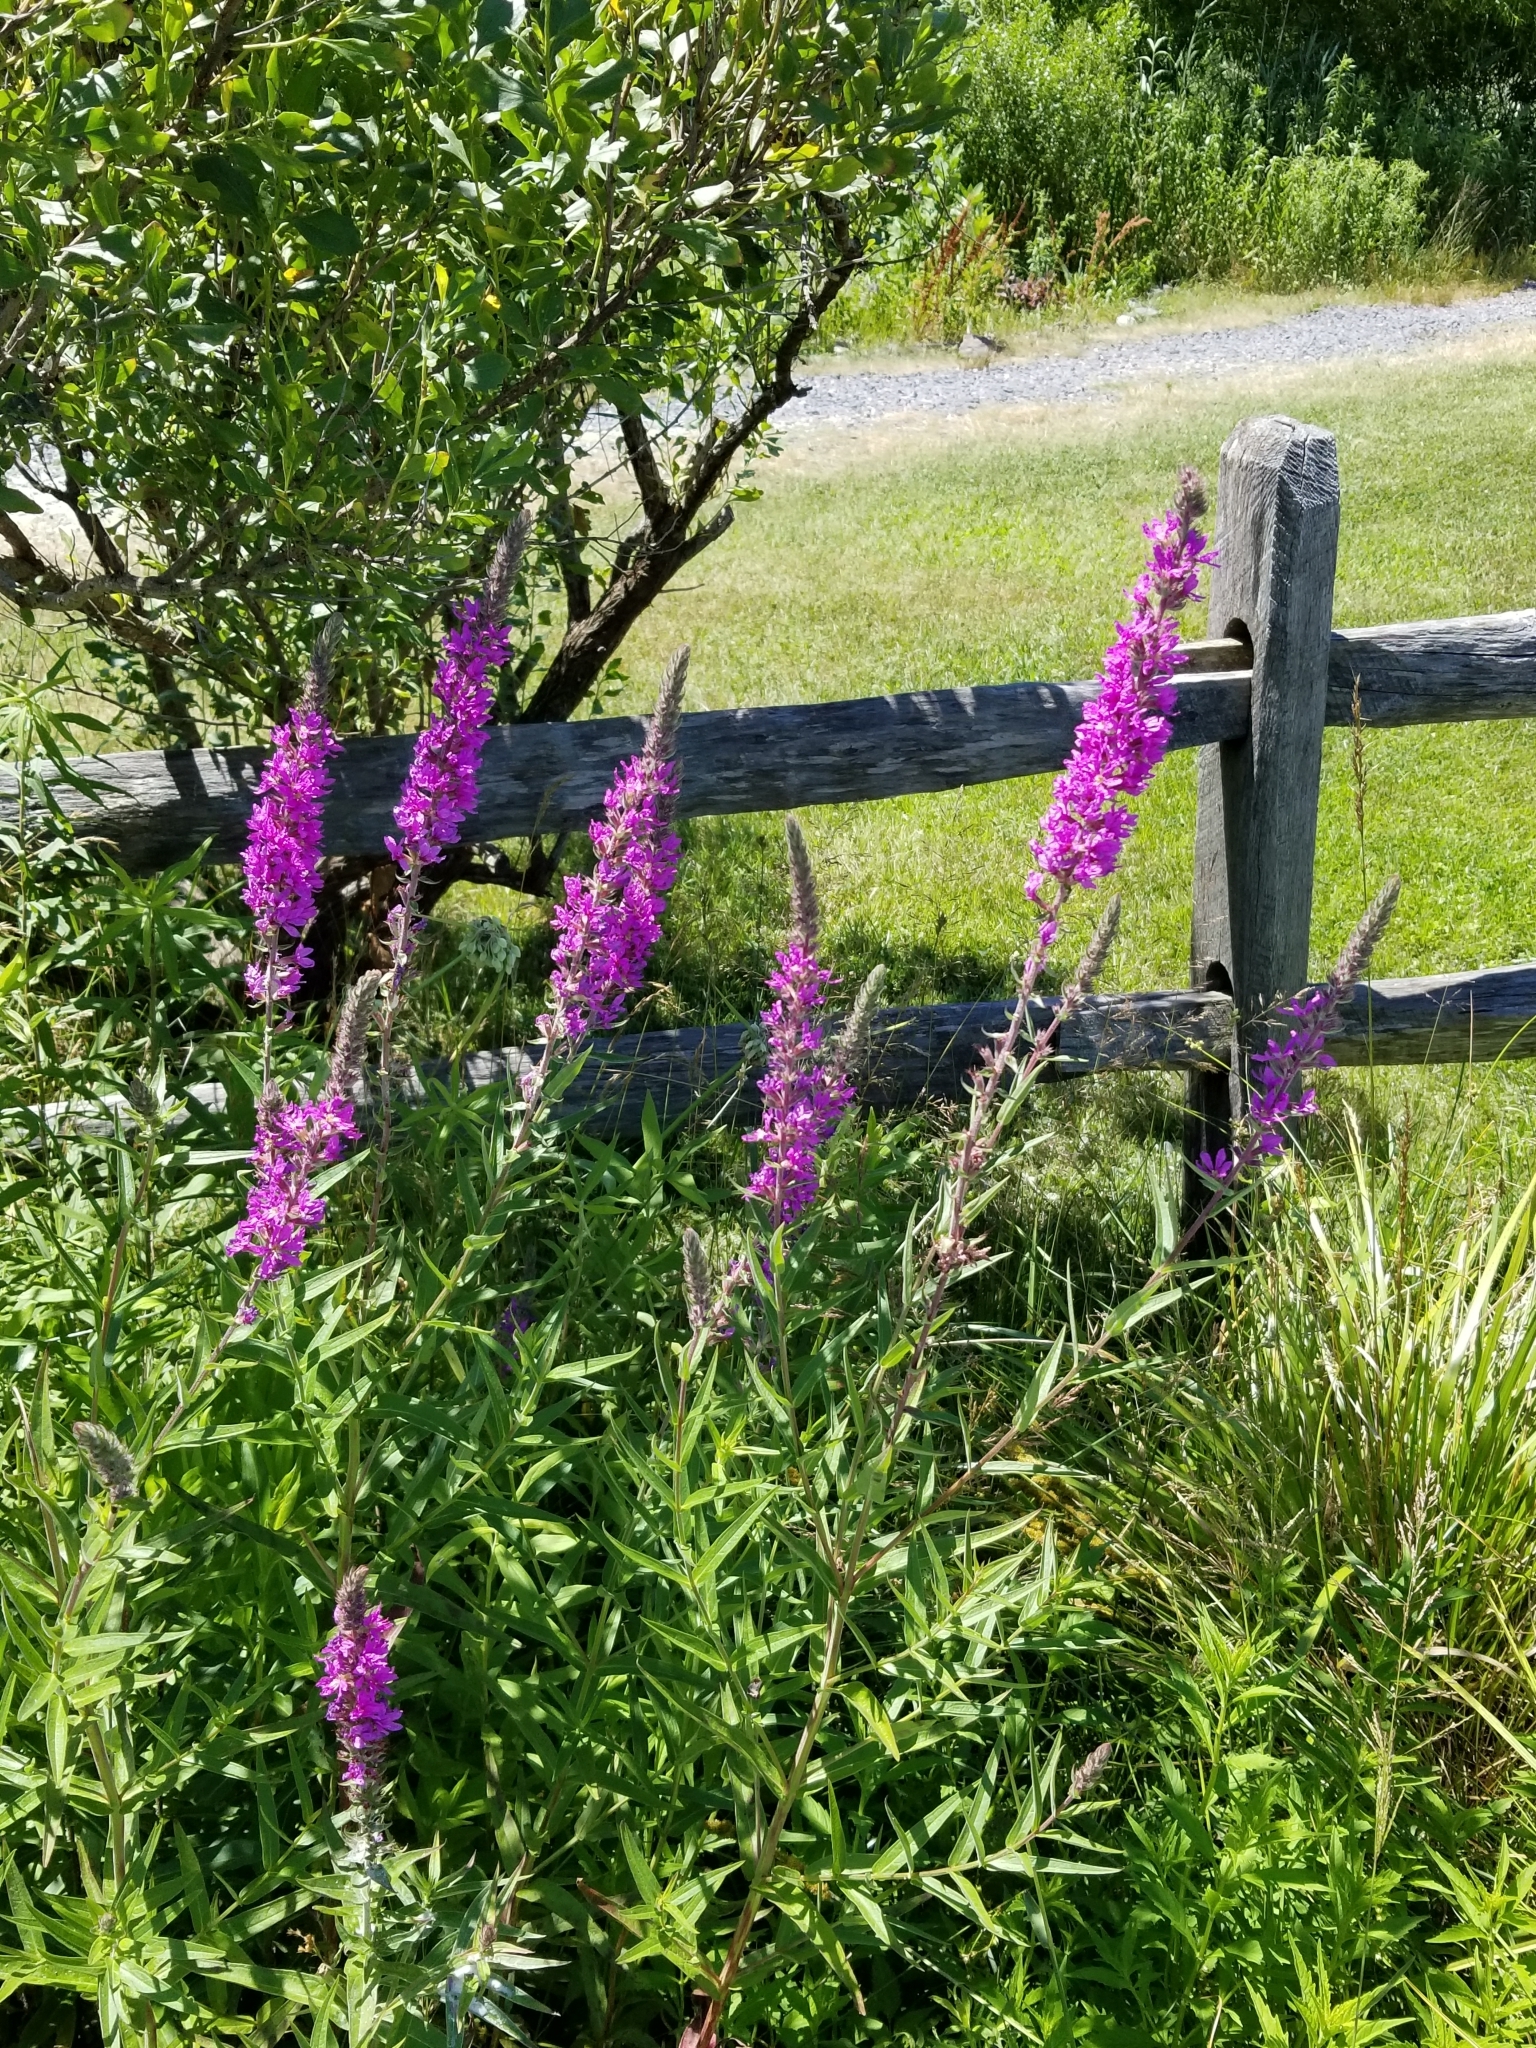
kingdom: Plantae
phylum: Tracheophyta
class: Magnoliopsida
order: Myrtales
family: Lythraceae
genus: Lythrum
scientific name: Lythrum salicaria
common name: Purple loosestrife
